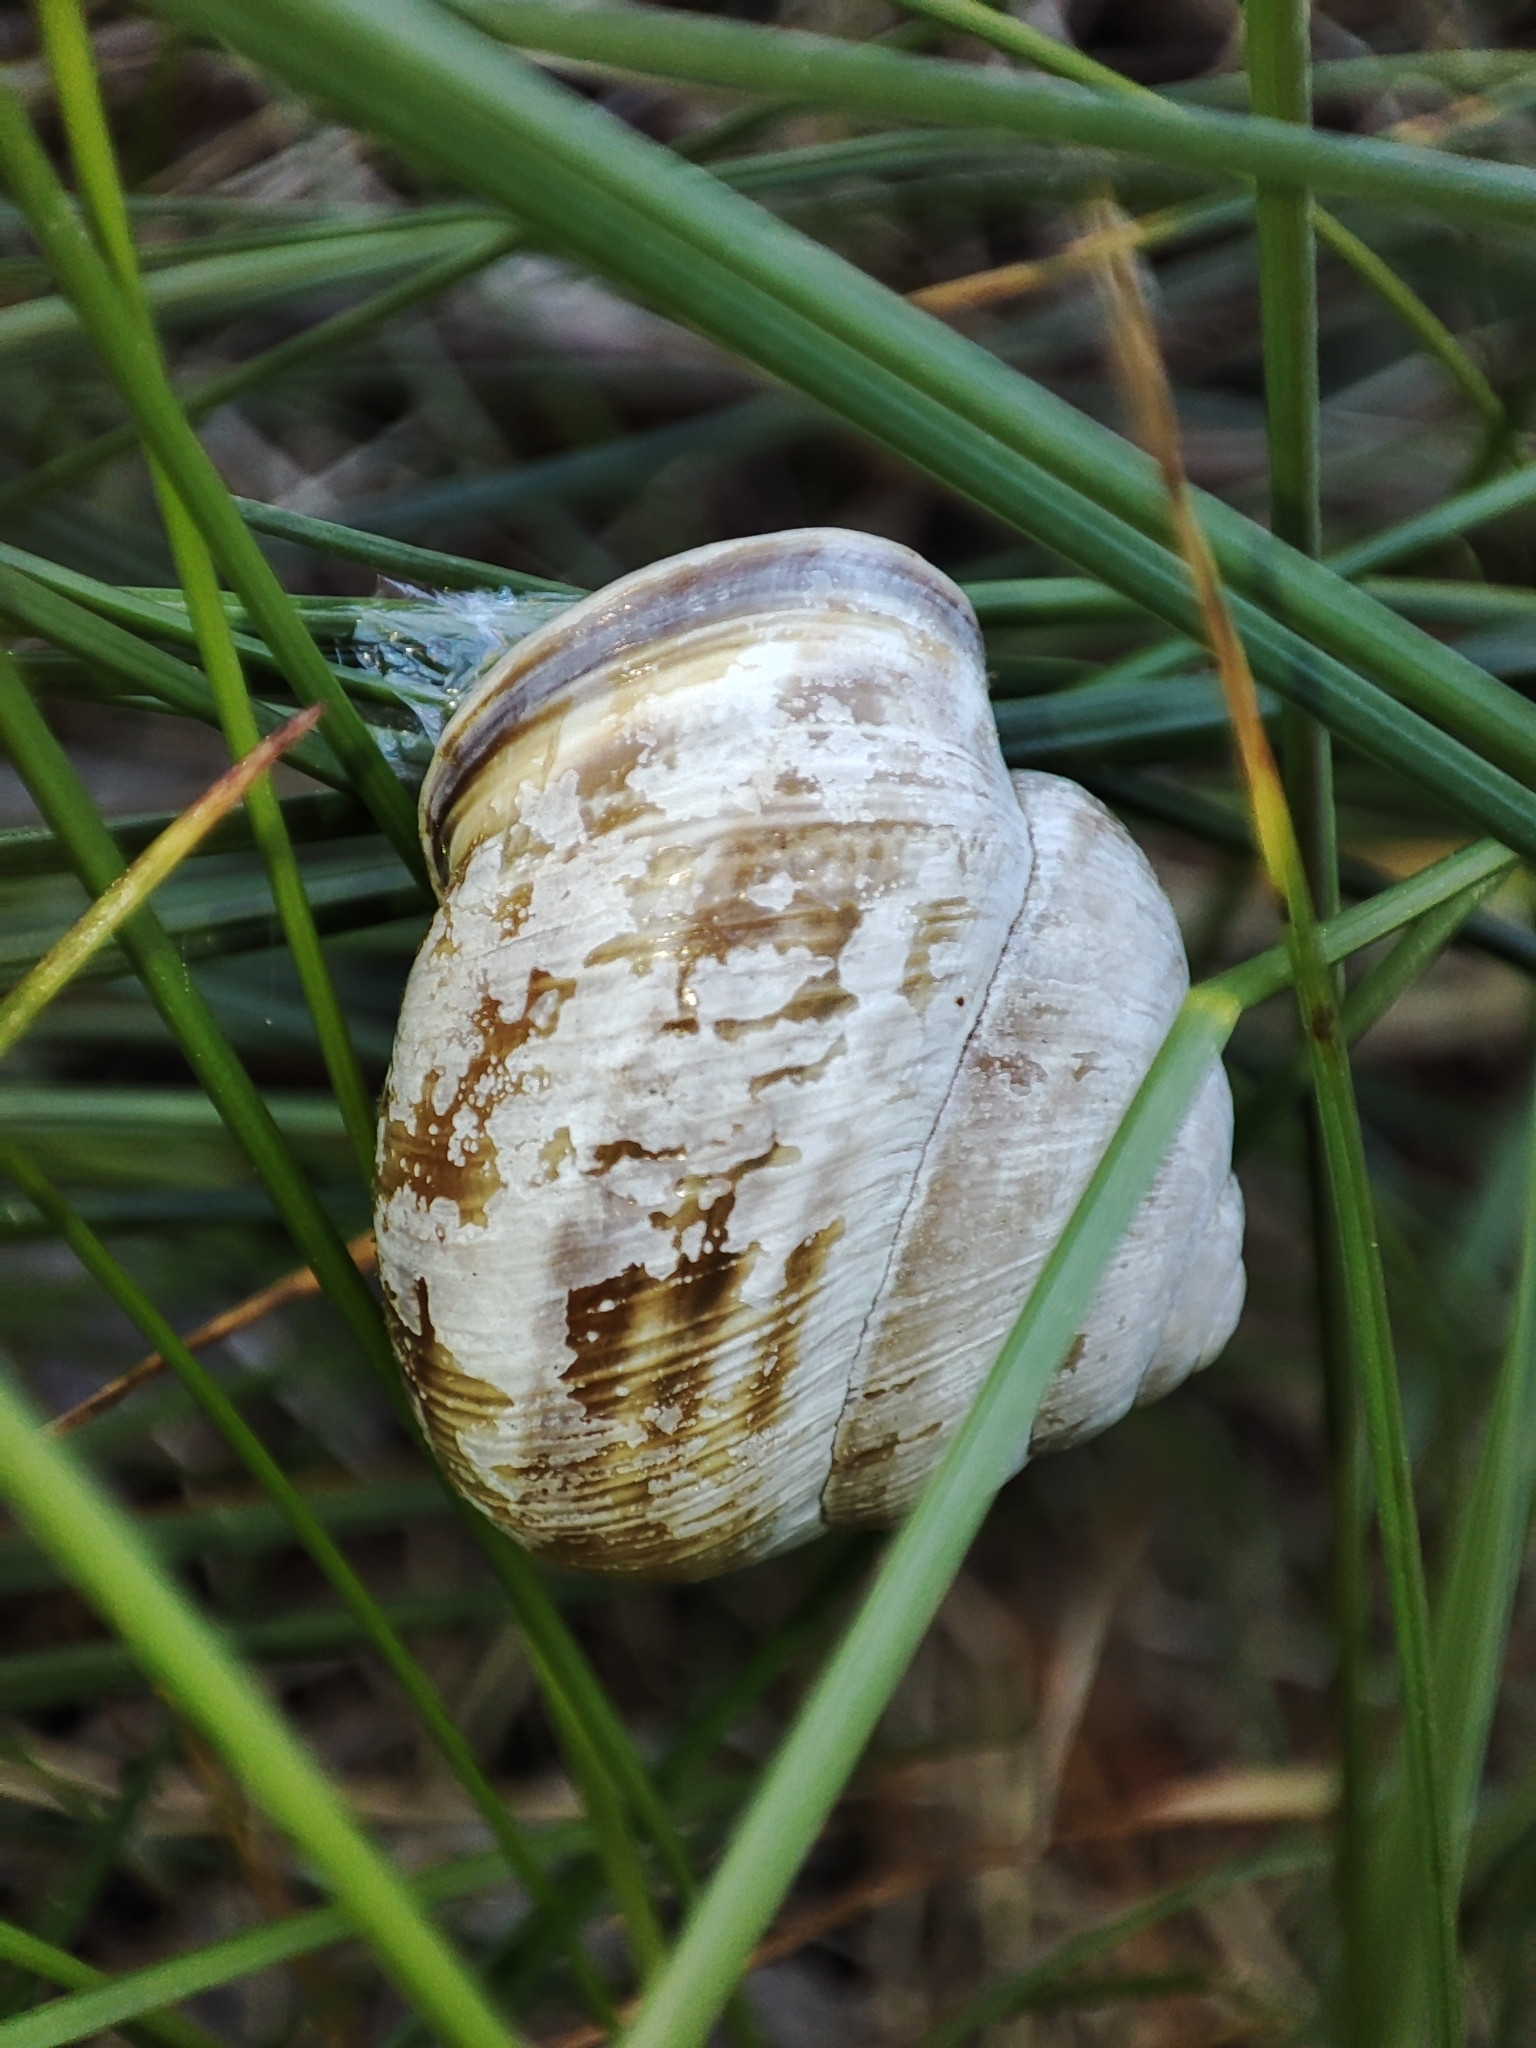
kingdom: Animalia
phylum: Mollusca
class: Gastropoda
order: Stylommatophora
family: Helicidae
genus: Caucasotachea
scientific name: Caucasotachea vindobonensis
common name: European helicid land snail
